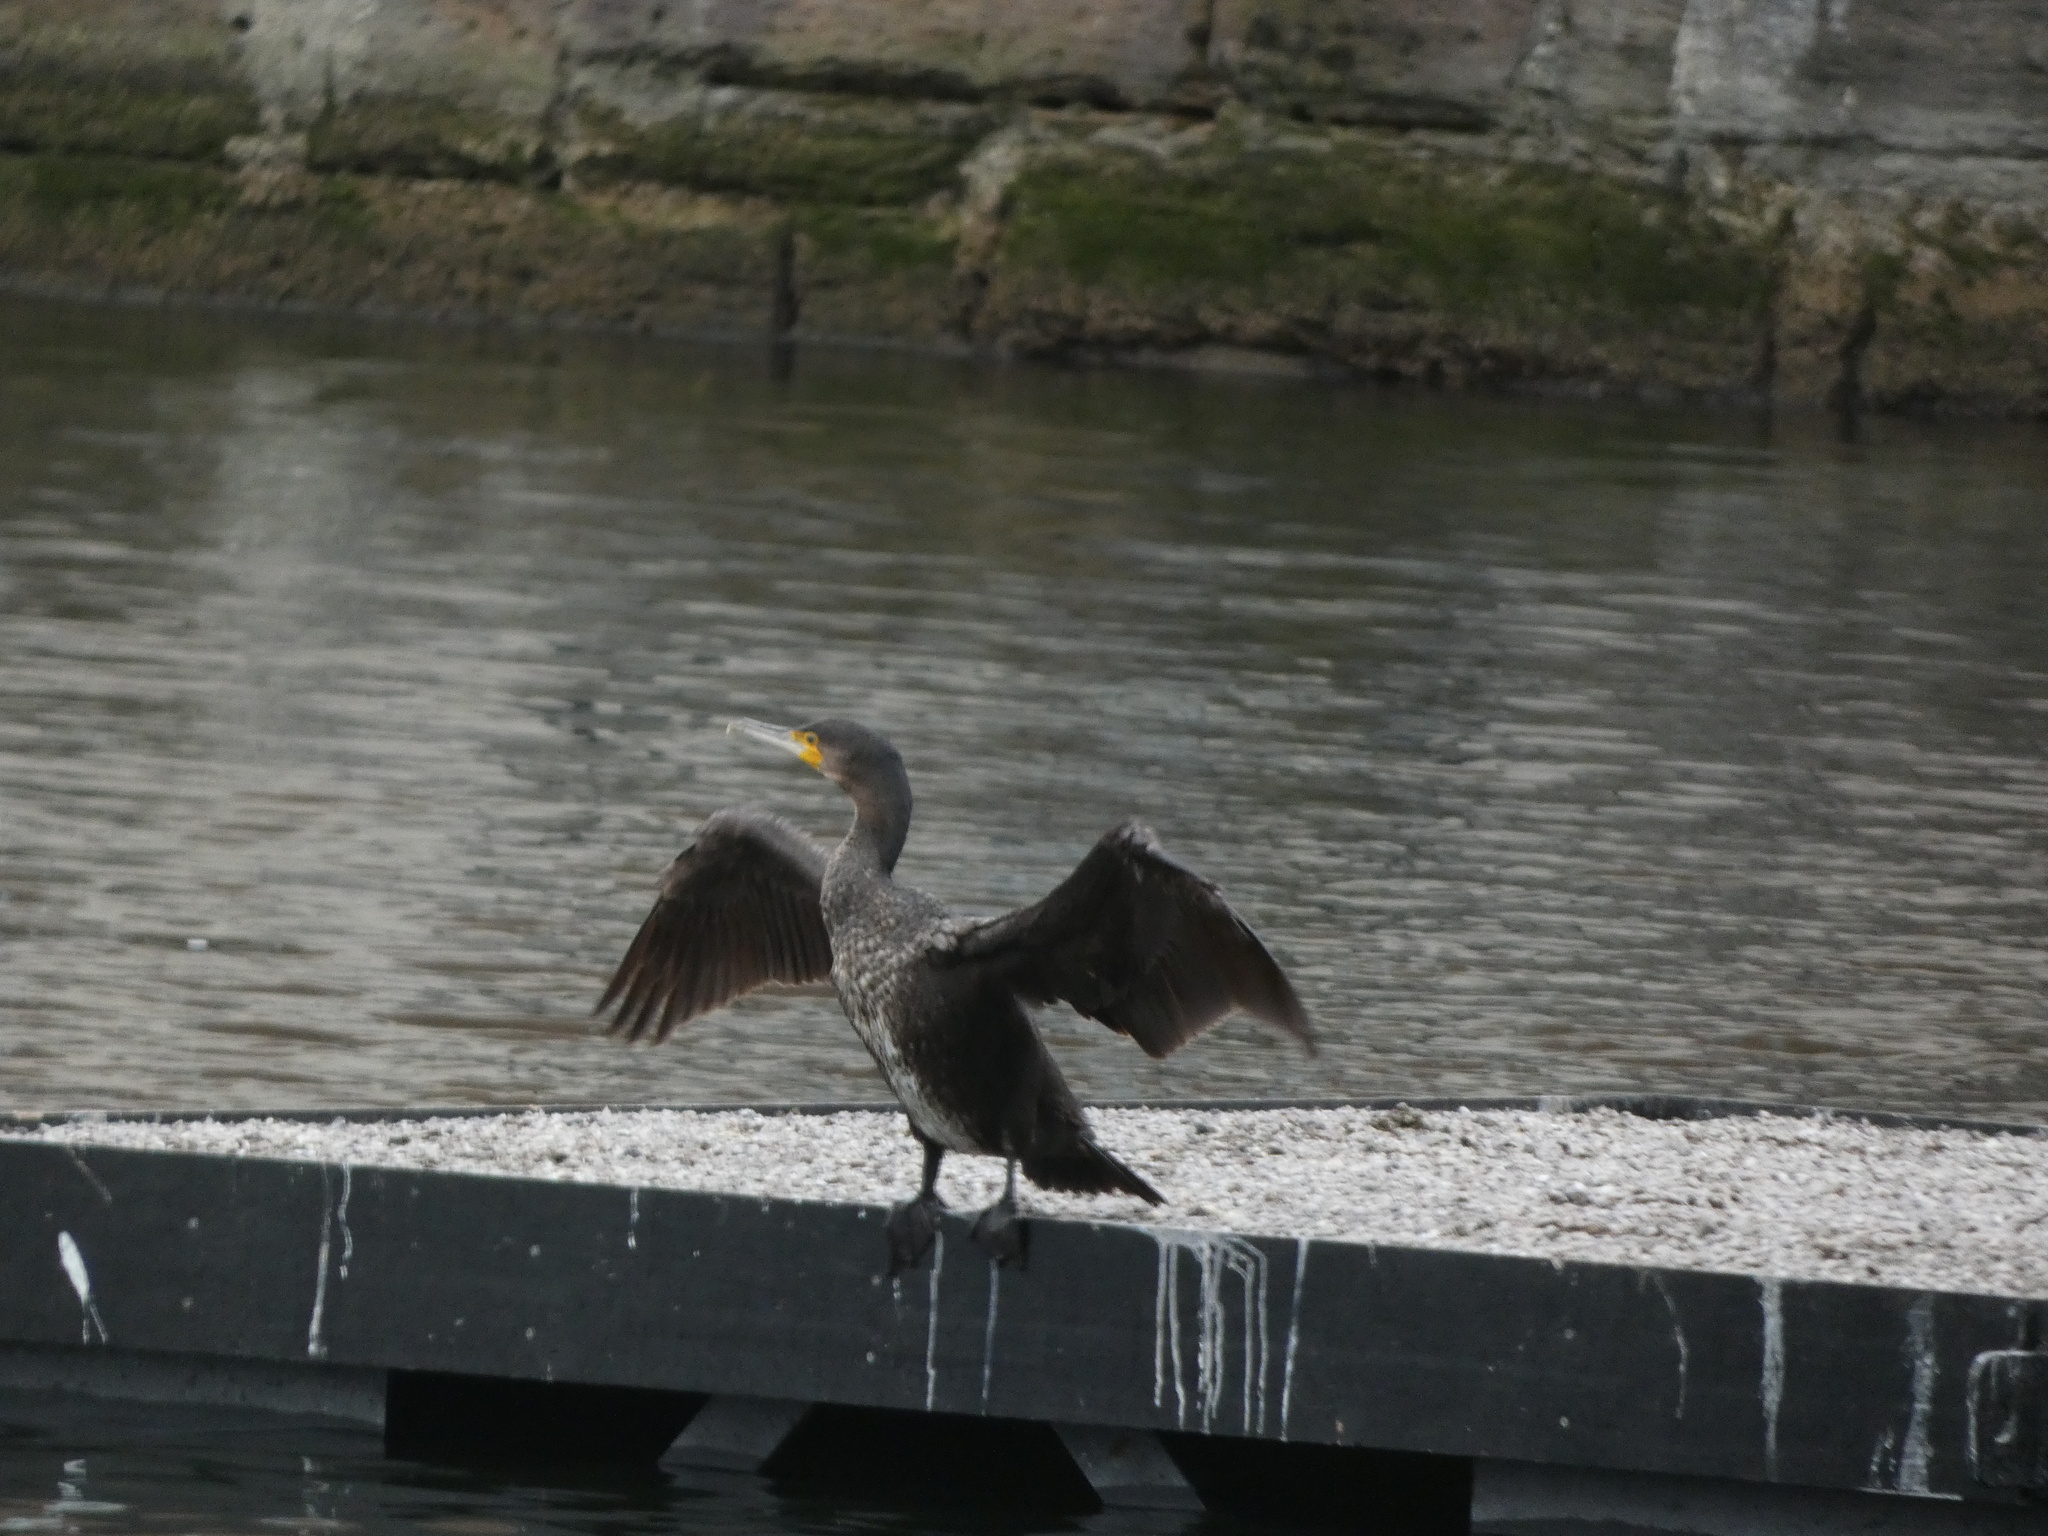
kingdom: Animalia
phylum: Chordata
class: Aves
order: Suliformes
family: Phalacrocoracidae
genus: Phalacrocorax
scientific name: Phalacrocorax carbo
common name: Great cormorant
